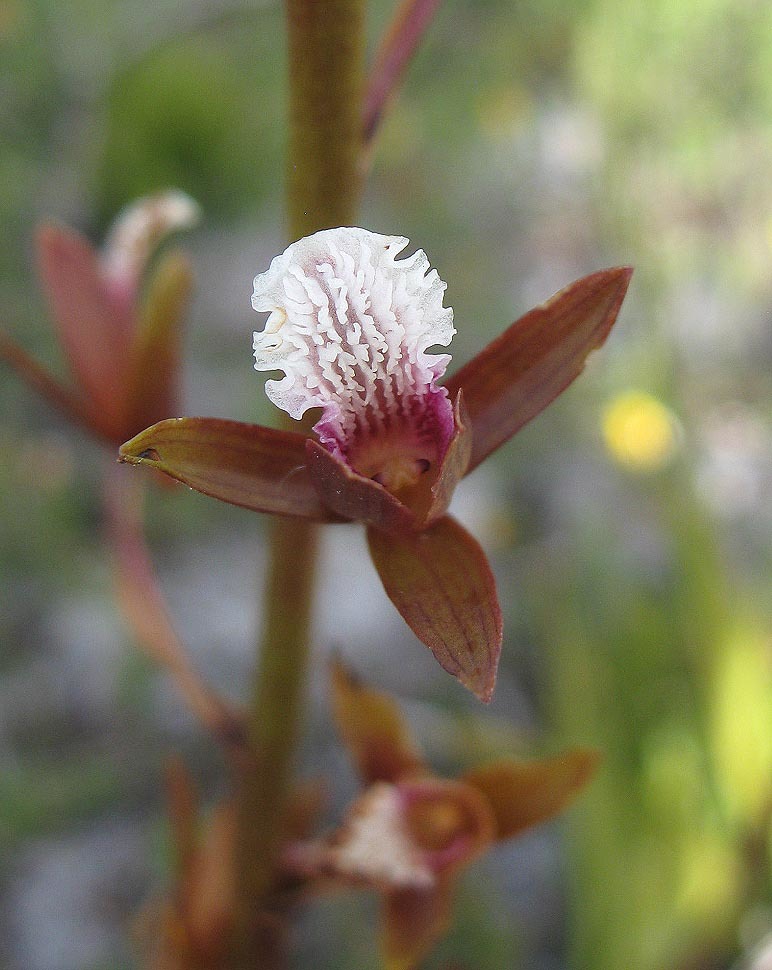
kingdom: Plantae
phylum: Tracheophyta
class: Liliopsida
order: Asparagales
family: Orchidaceae
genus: Eulophia
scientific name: Eulophia lamellata
